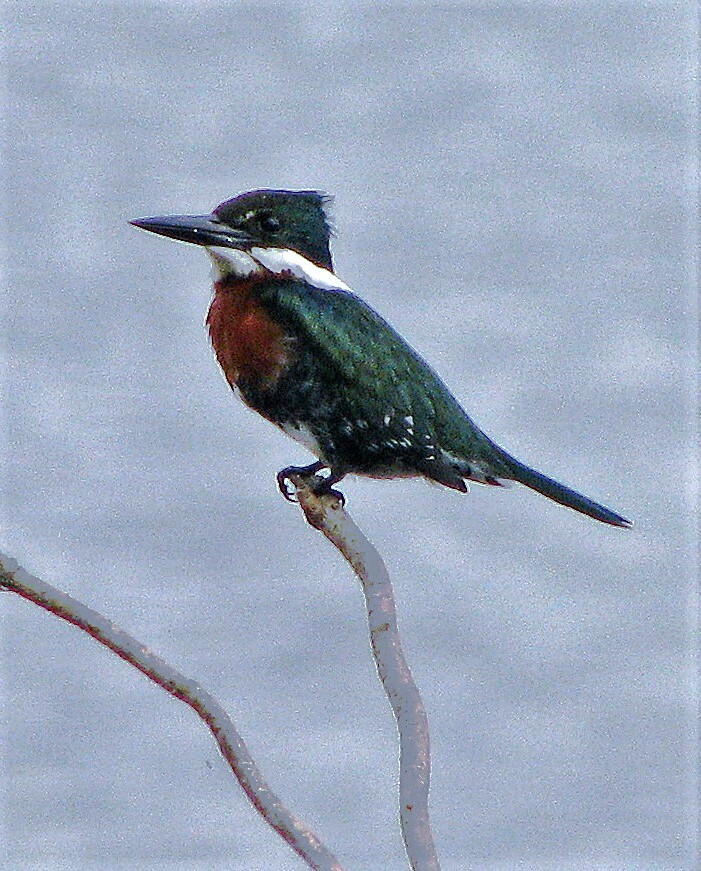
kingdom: Animalia
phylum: Chordata
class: Aves
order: Coraciiformes
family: Alcedinidae
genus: Chloroceryle
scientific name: Chloroceryle americana
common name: Green kingfisher
